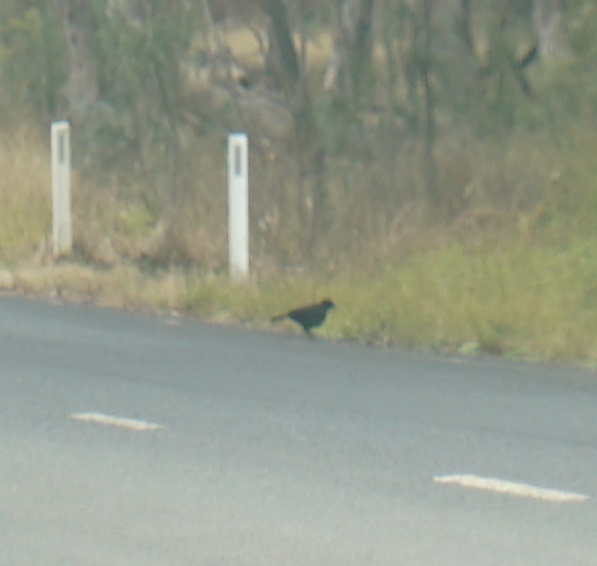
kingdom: Animalia
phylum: Chordata
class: Aves
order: Passeriformes
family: Corcoracidae
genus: Corcorax
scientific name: Corcorax melanoramphos
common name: White-winged chough
